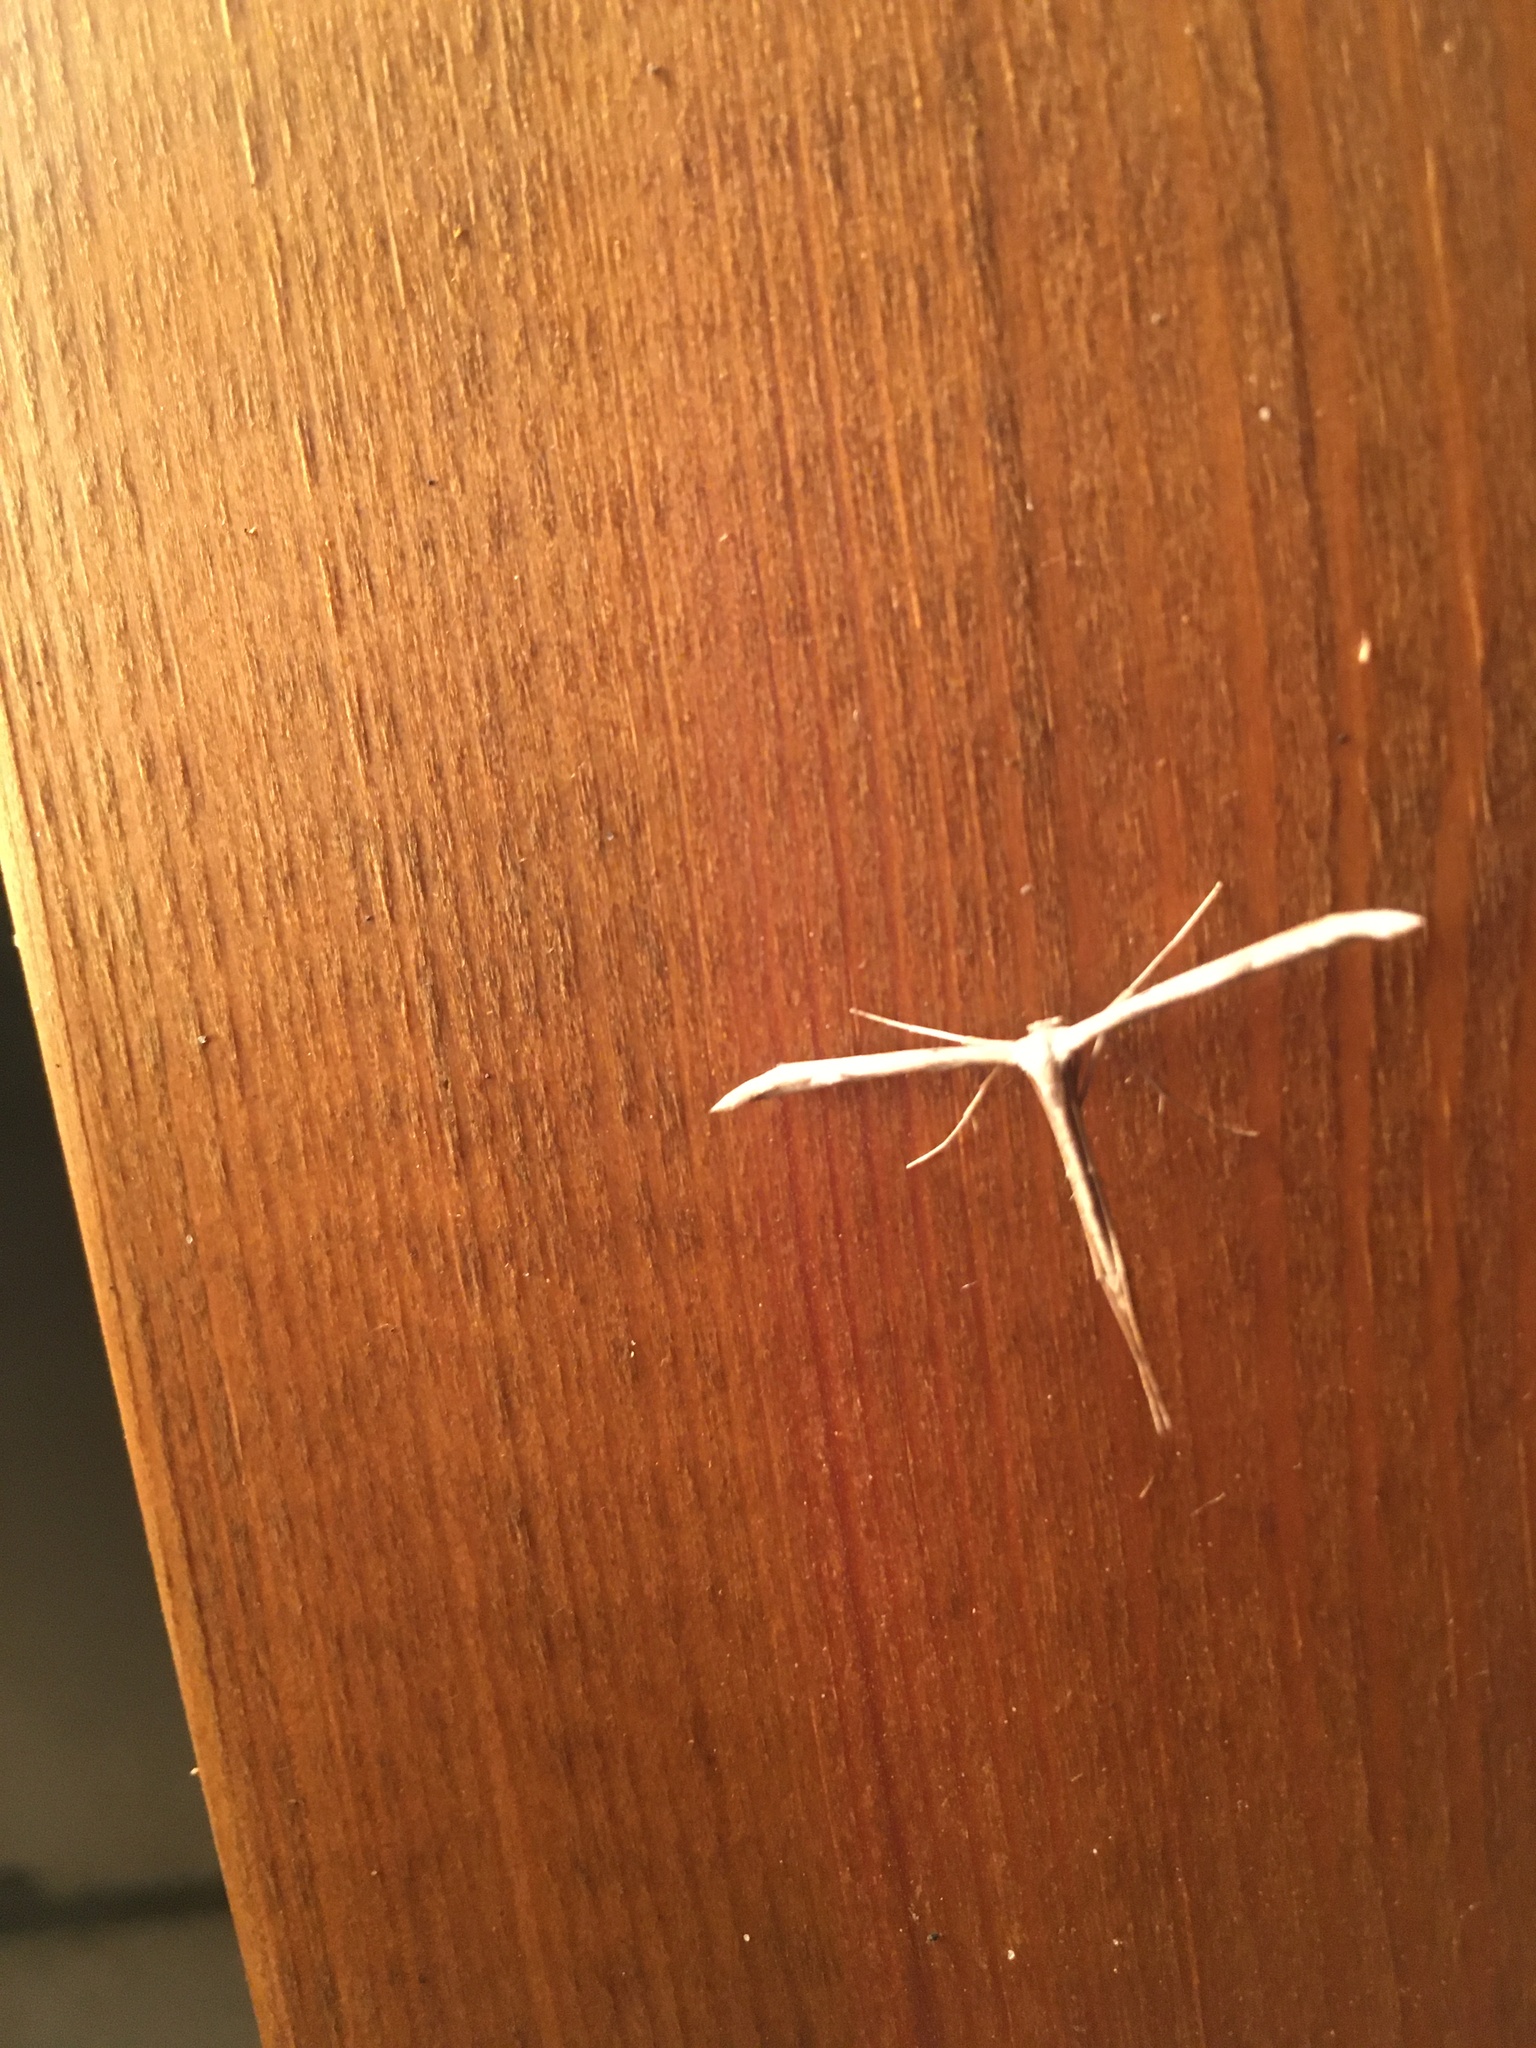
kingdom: Animalia
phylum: Arthropoda
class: Insecta
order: Lepidoptera
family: Pterophoridae
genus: Emmelina
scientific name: Emmelina monodactyla
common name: Common plume
